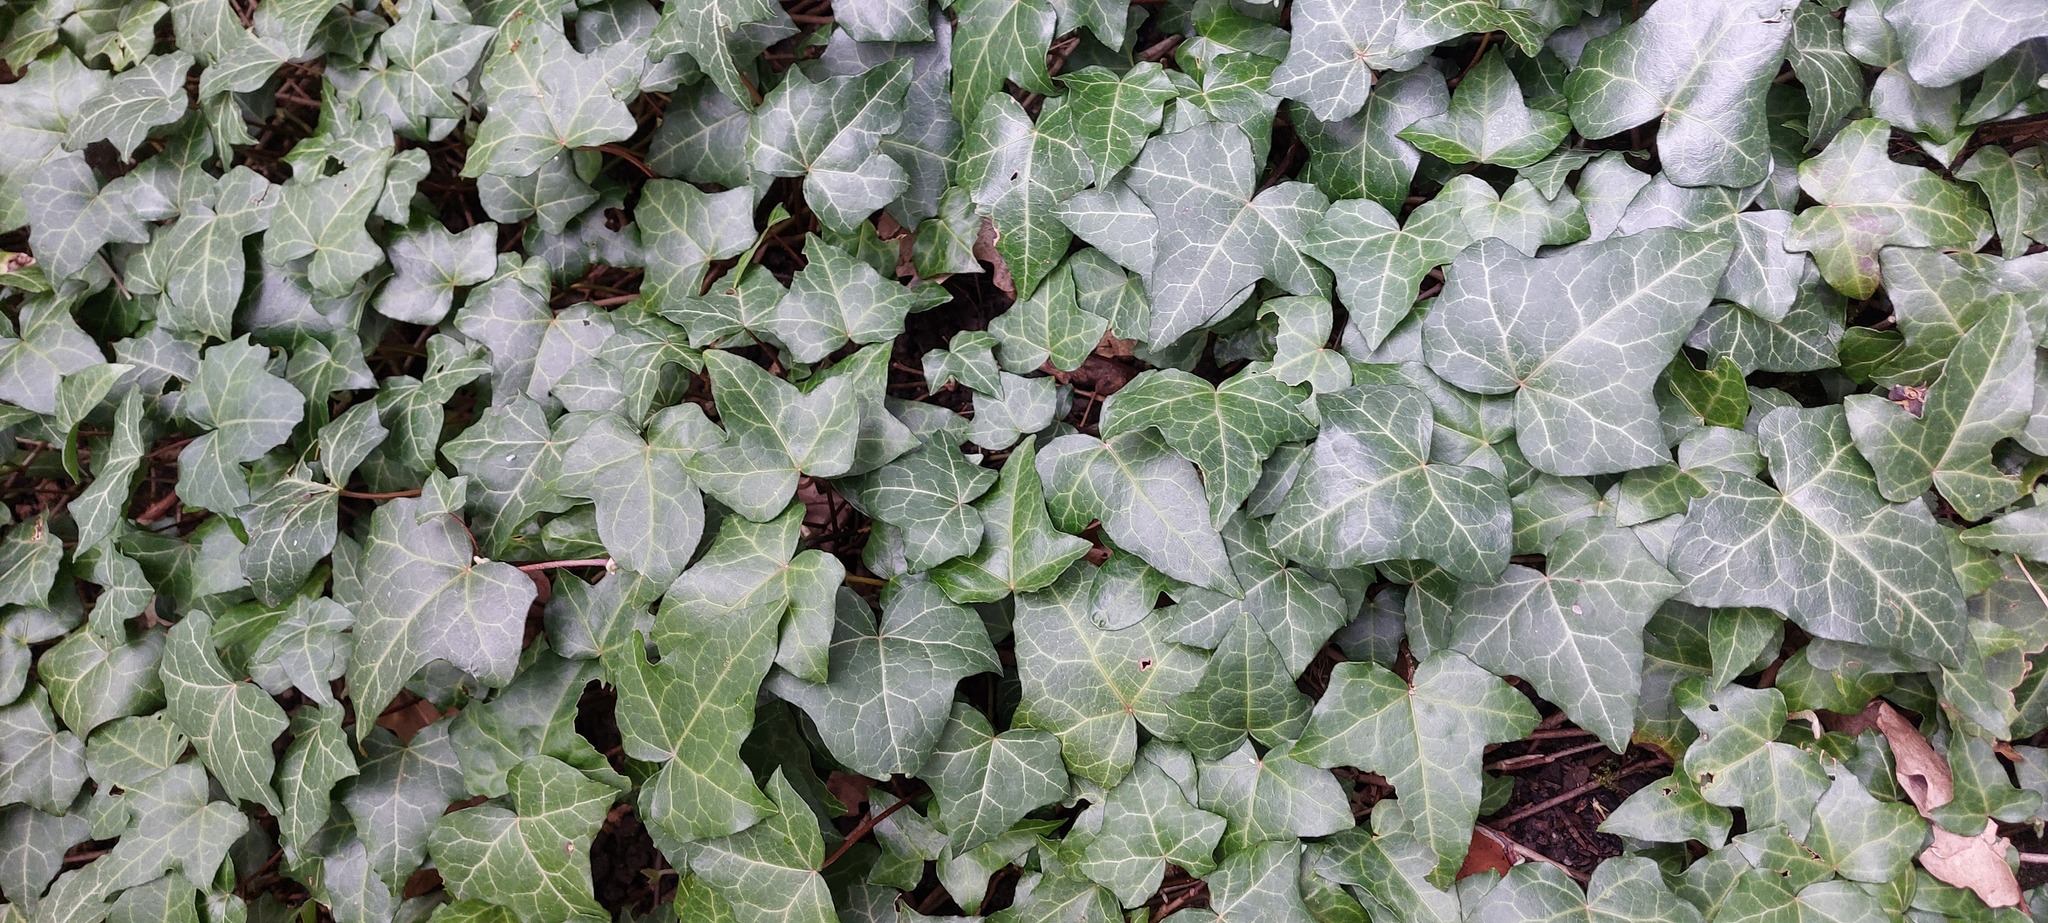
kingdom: Plantae
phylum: Tracheophyta
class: Magnoliopsida
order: Apiales
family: Araliaceae
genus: Hedera
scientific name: Hedera helix
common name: Ivy
